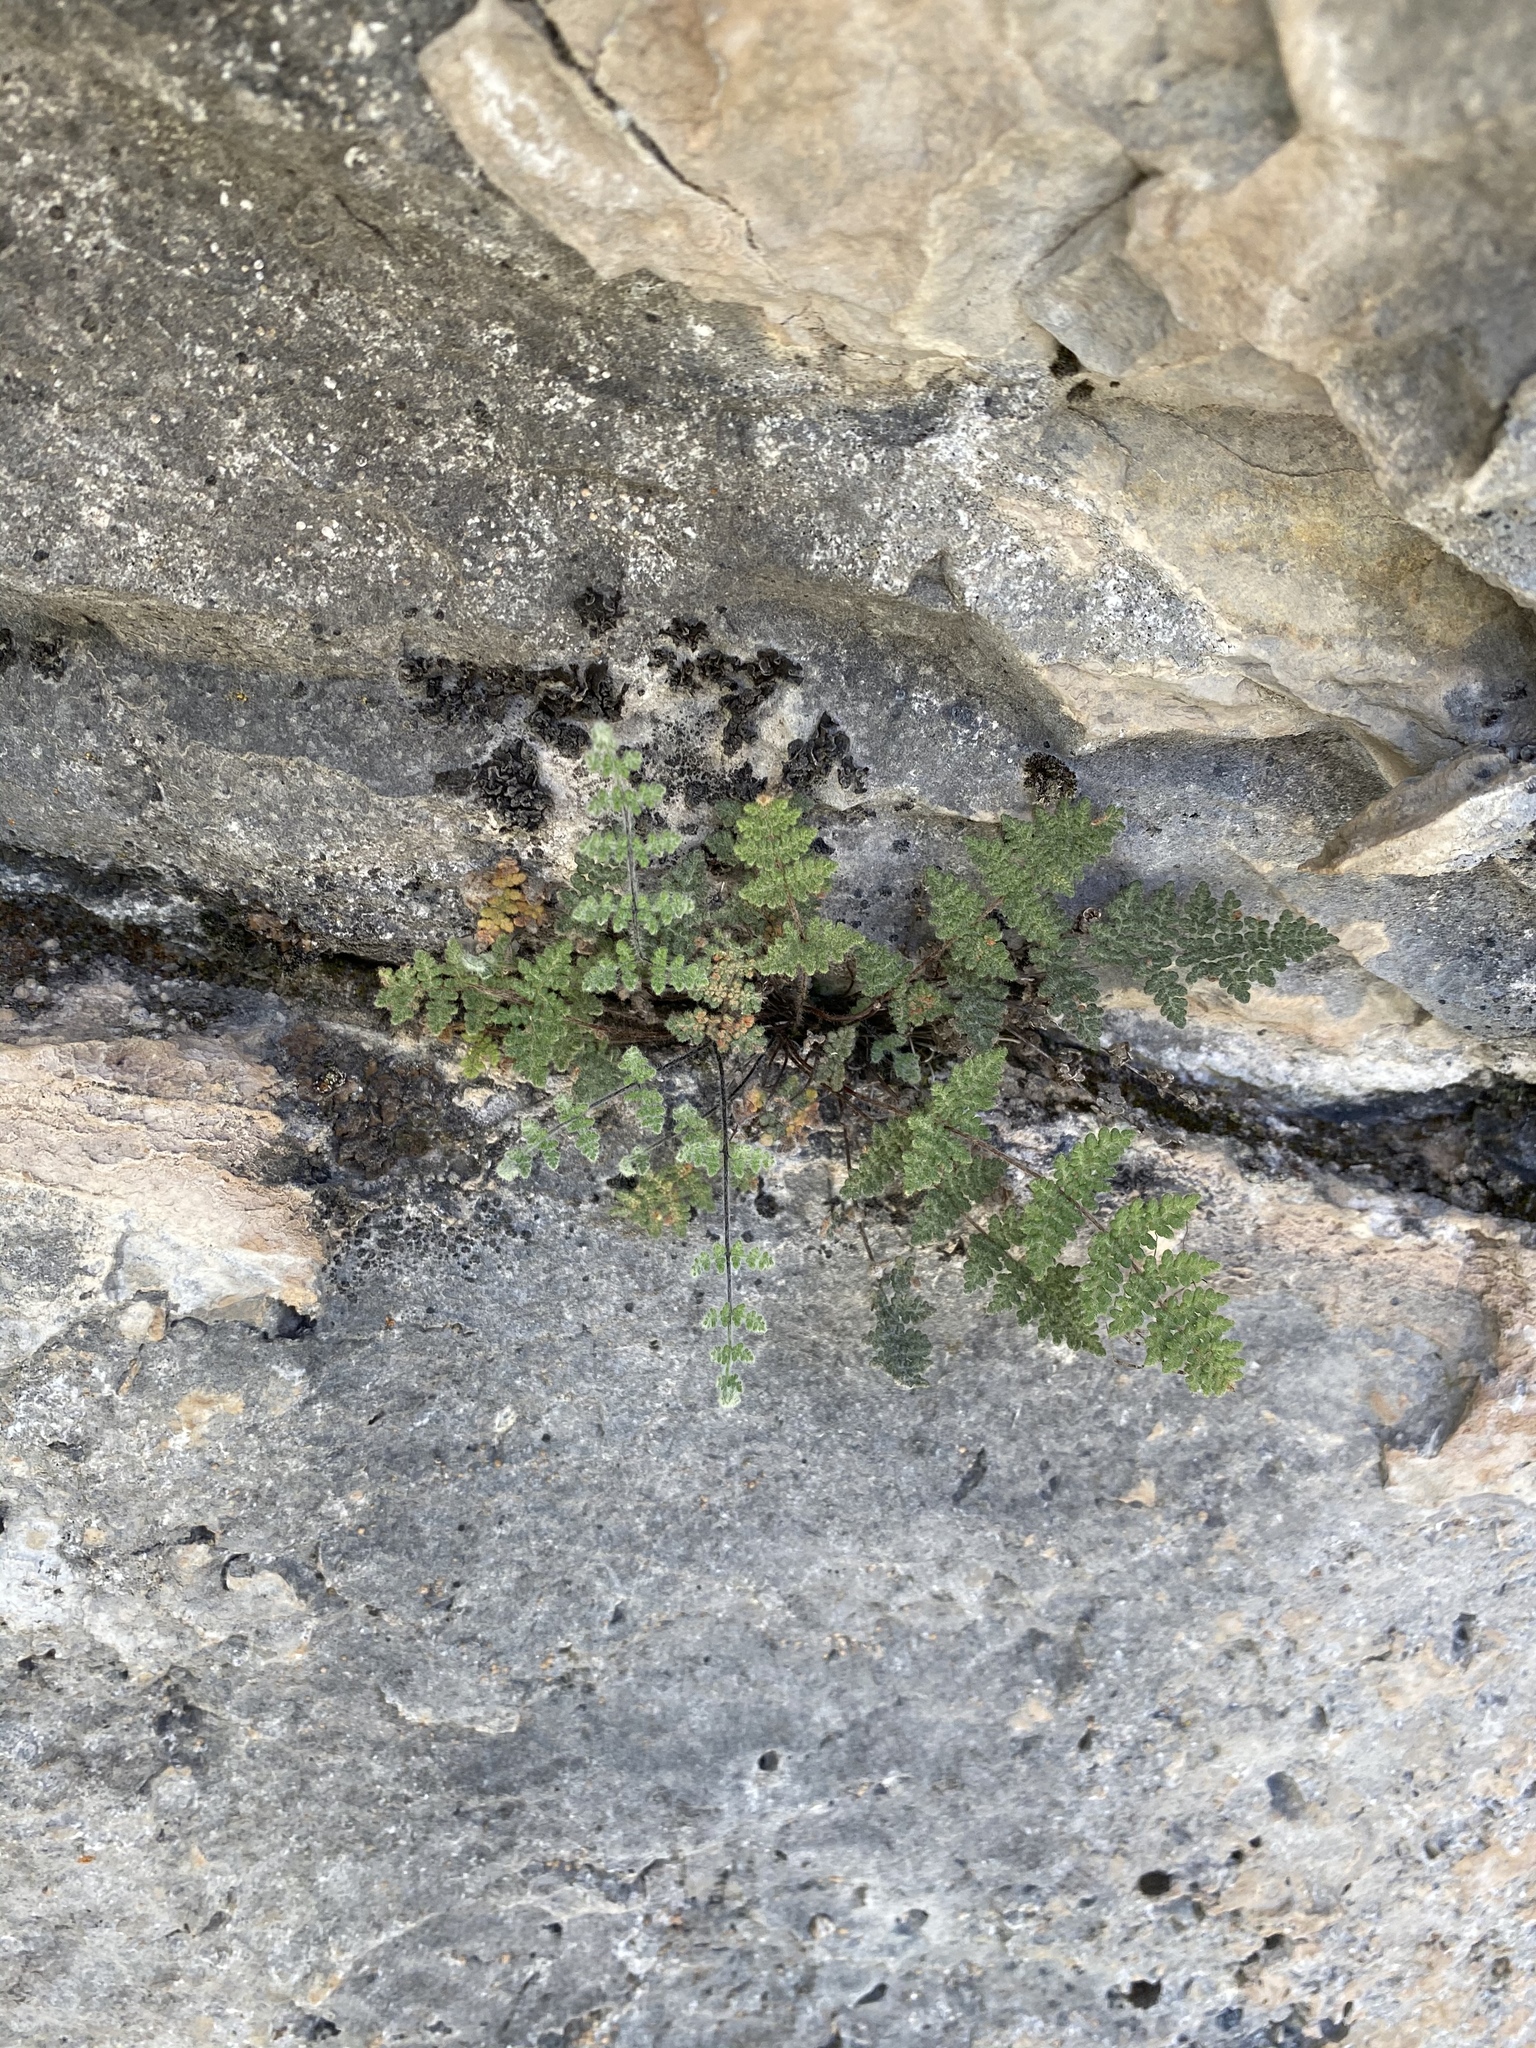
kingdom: Plantae
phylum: Tracheophyta
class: Polypodiopsida
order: Polypodiales
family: Pteridaceae
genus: Myriopteris
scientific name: Myriopteris gracilis
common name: Fee's lip fern
